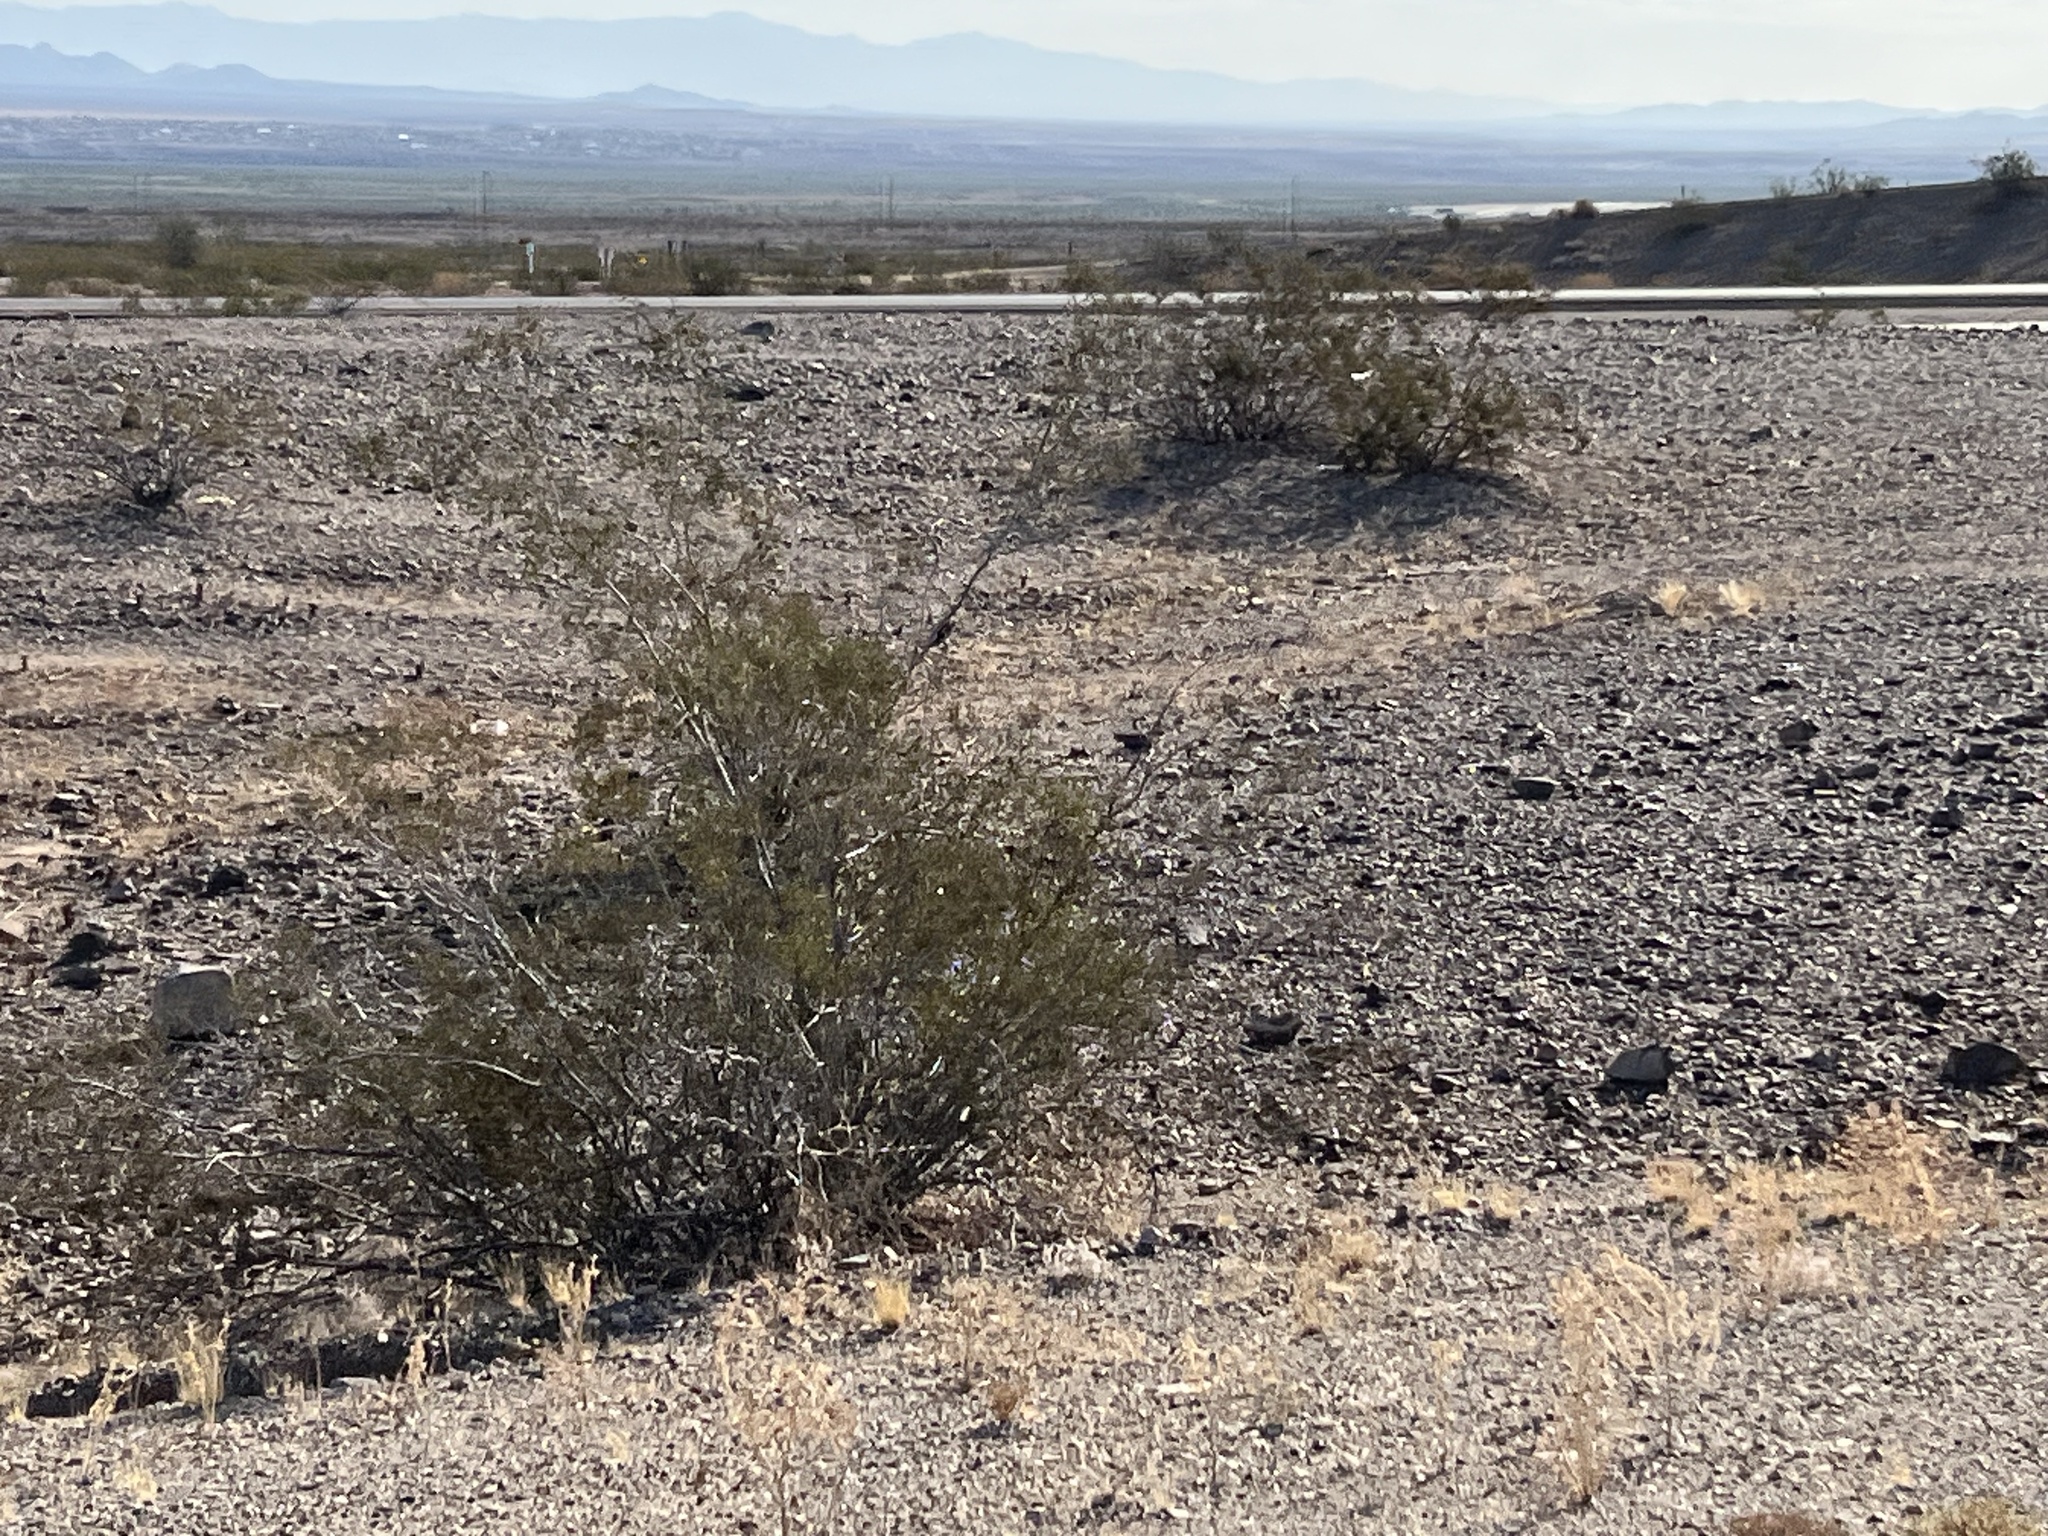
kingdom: Plantae
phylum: Tracheophyta
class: Magnoliopsida
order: Zygophyllales
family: Zygophyllaceae
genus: Larrea
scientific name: Larrea tridentata
